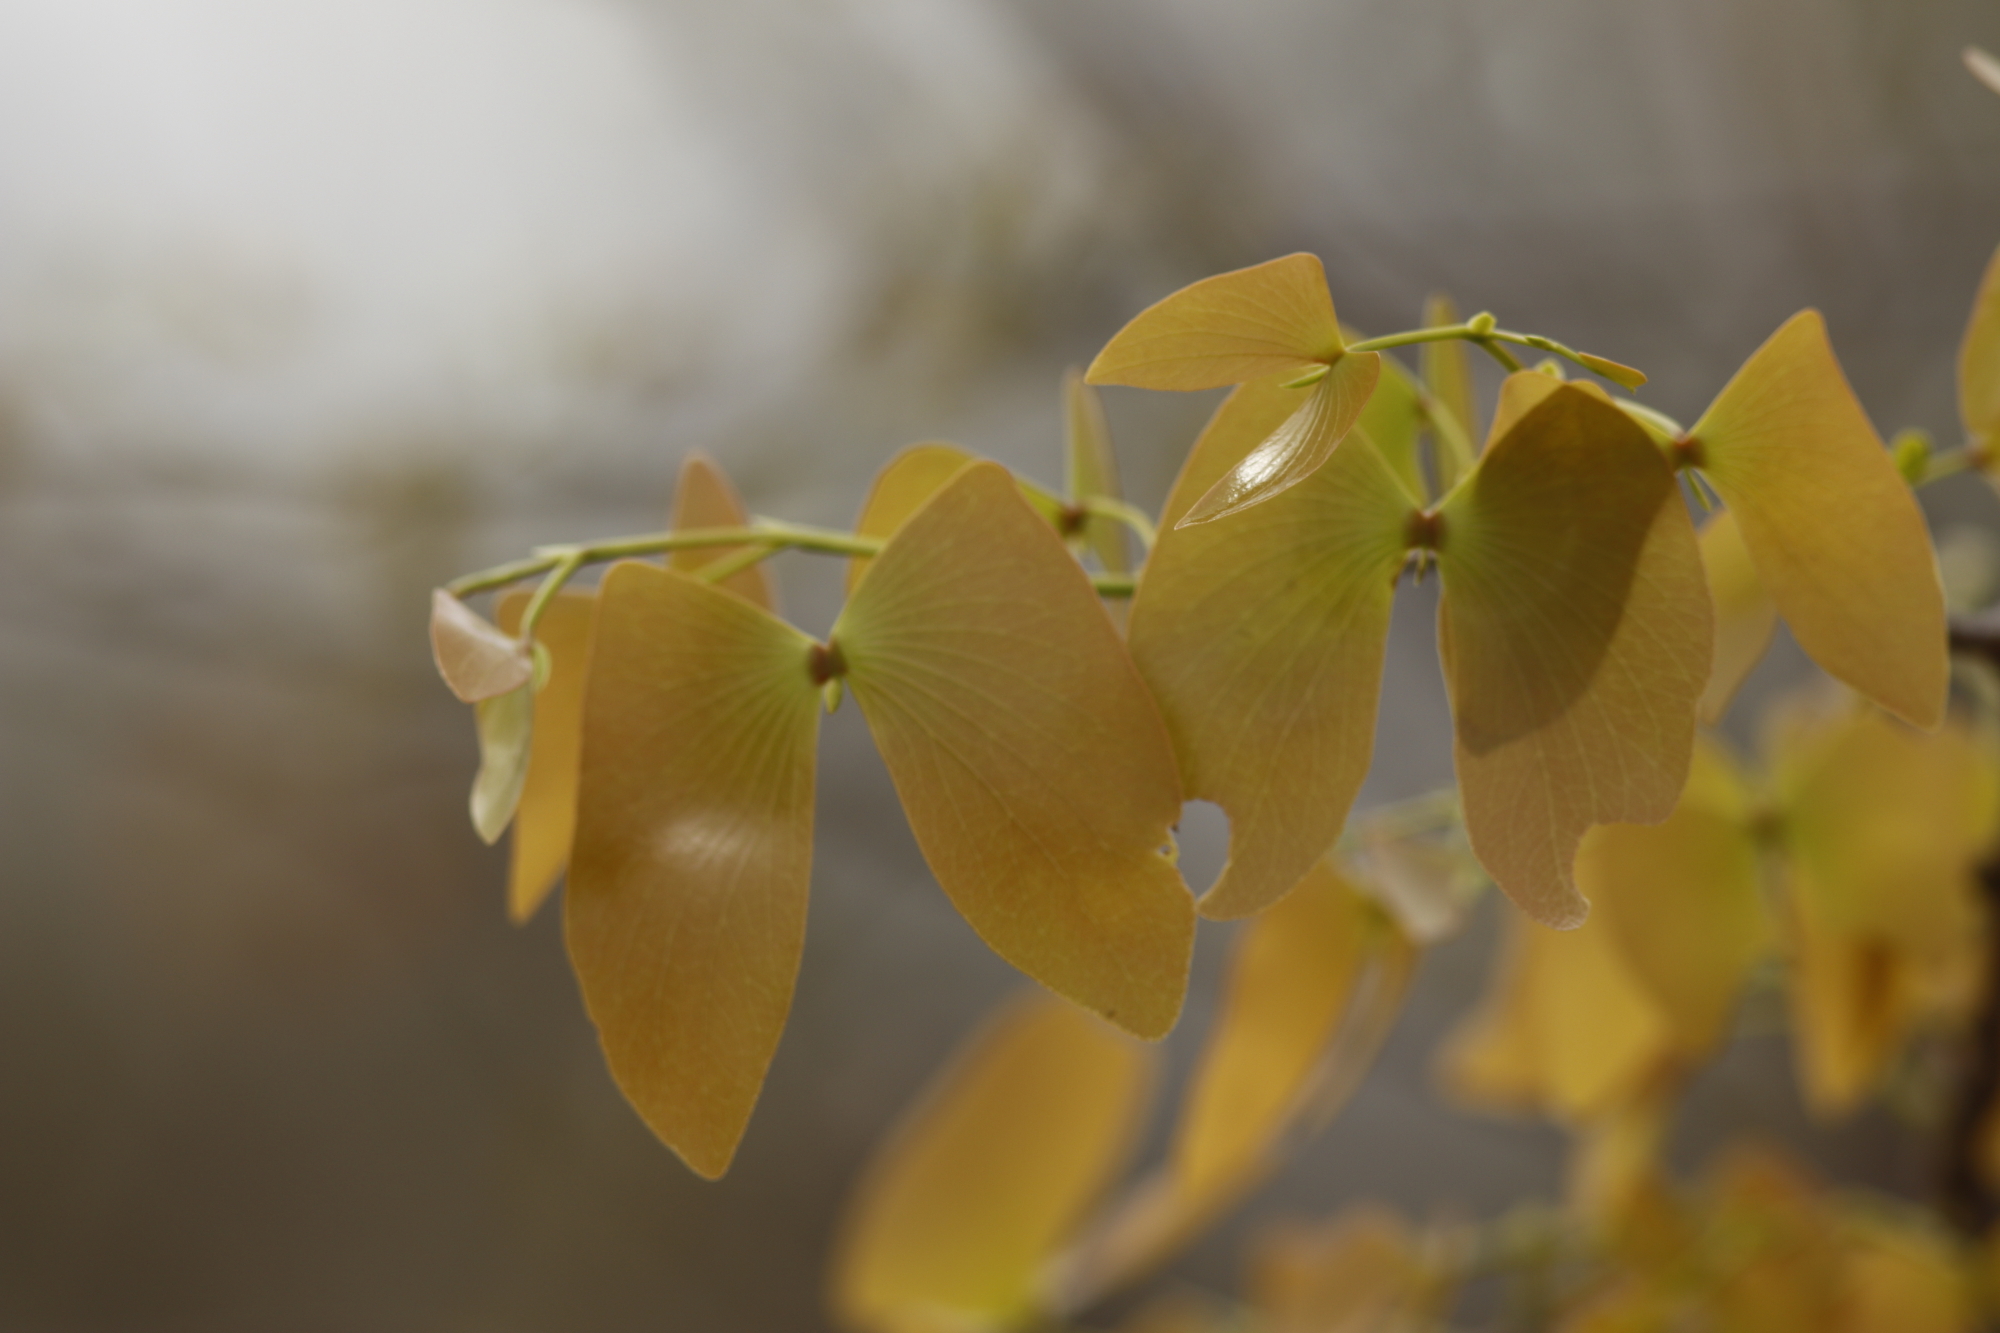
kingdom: Plantae
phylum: Tracheophyta
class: Magnoliopsida
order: Fabales
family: Fabaceae
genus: Colophospermum
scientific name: Colophospermum mopane
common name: Mopane
